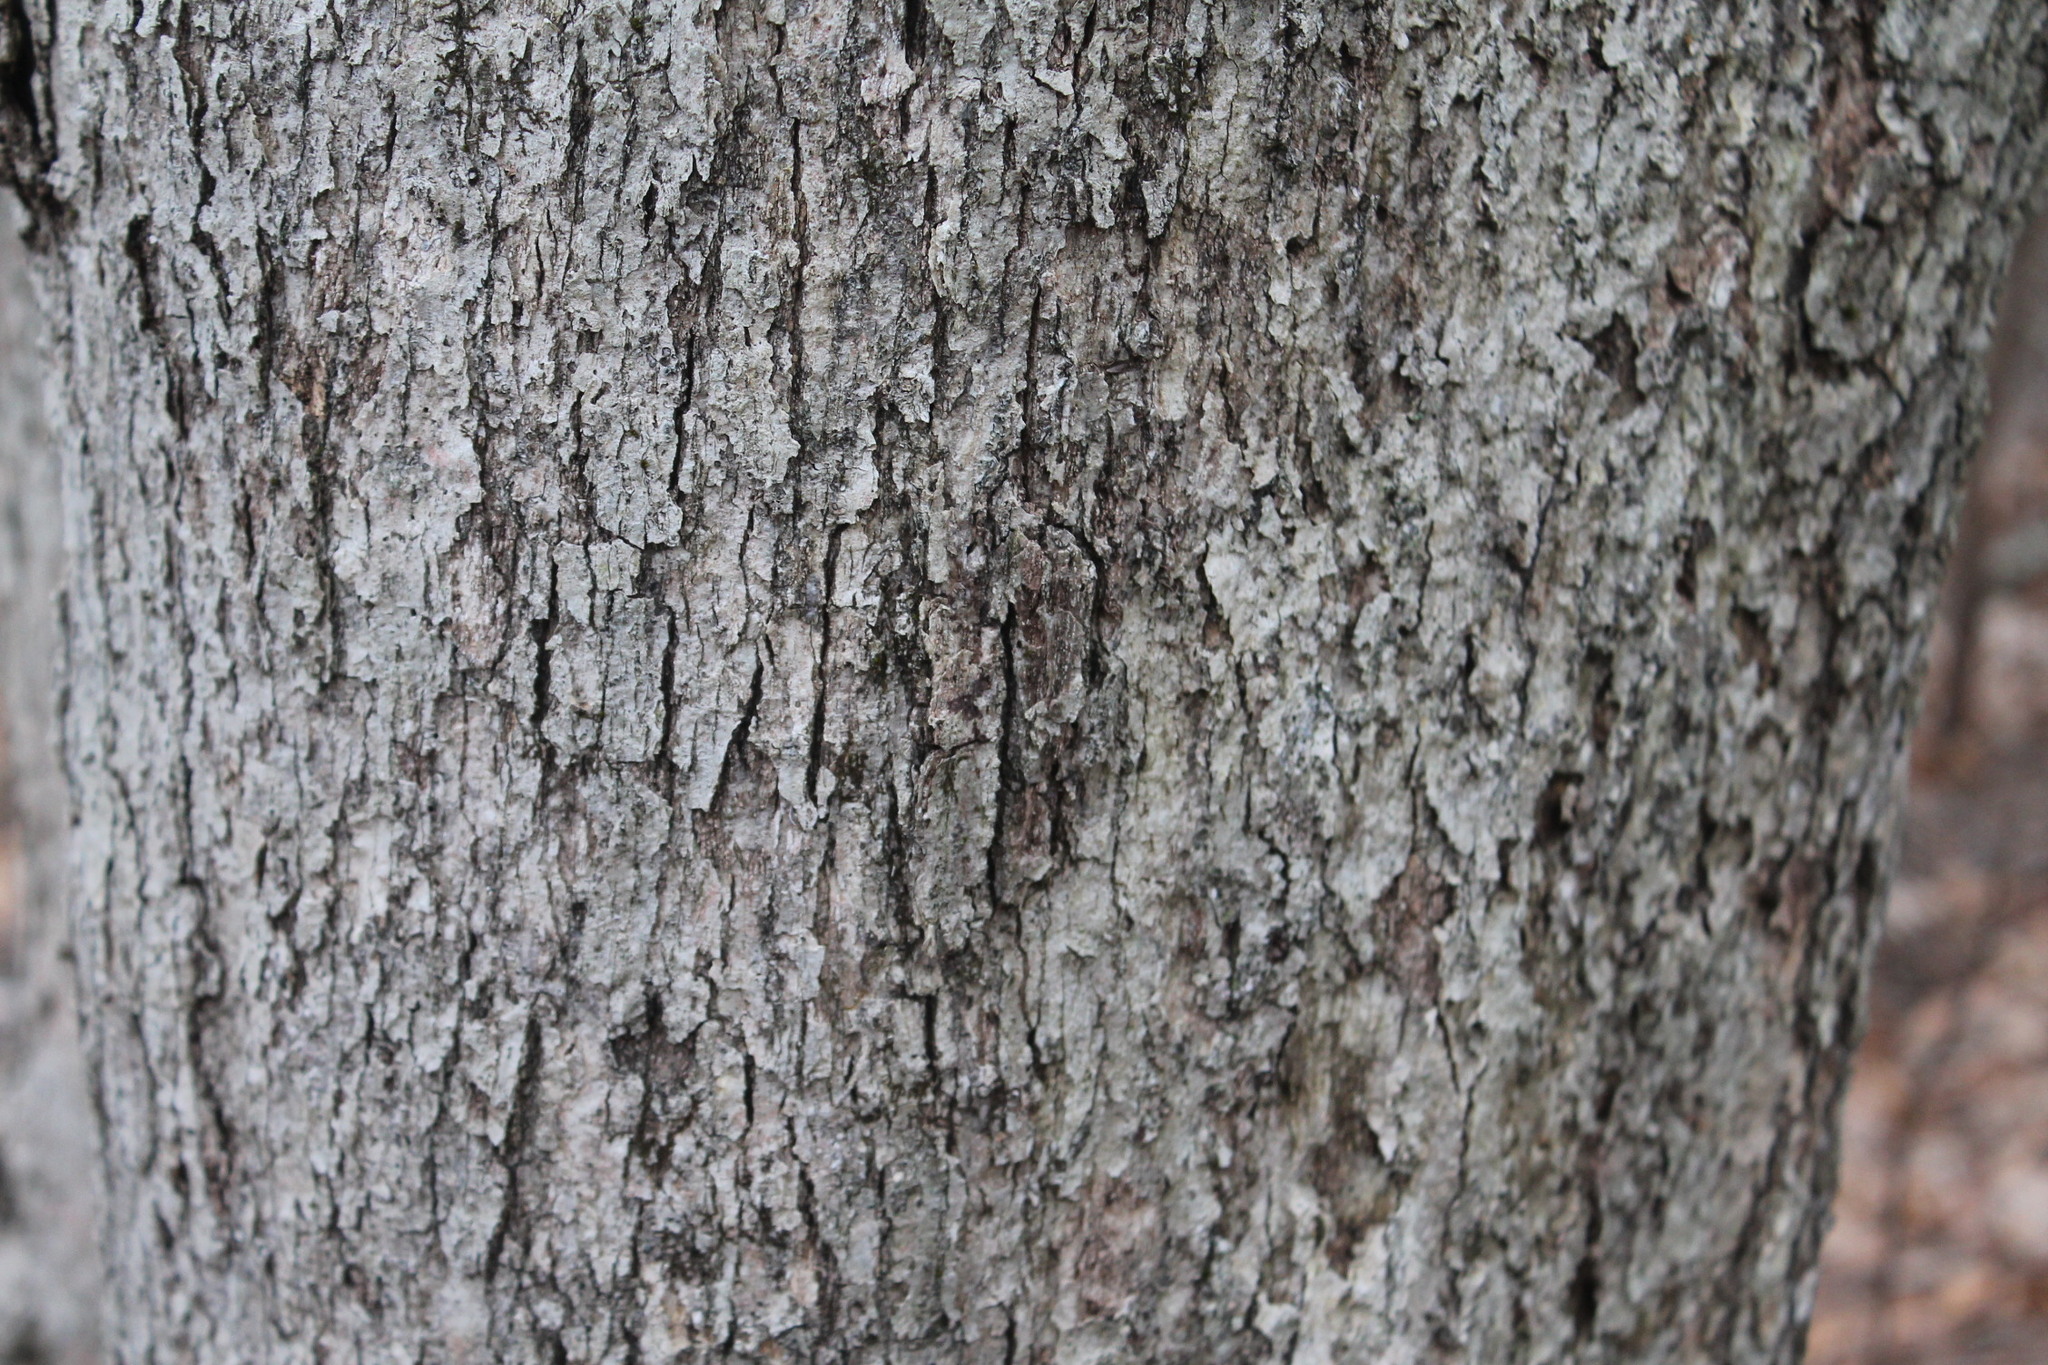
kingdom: Plantae
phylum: Tracheophyta
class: Magnoliopsida
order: Fagales
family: Fagaceae
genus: Quercus
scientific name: Quercus alba
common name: White oak
